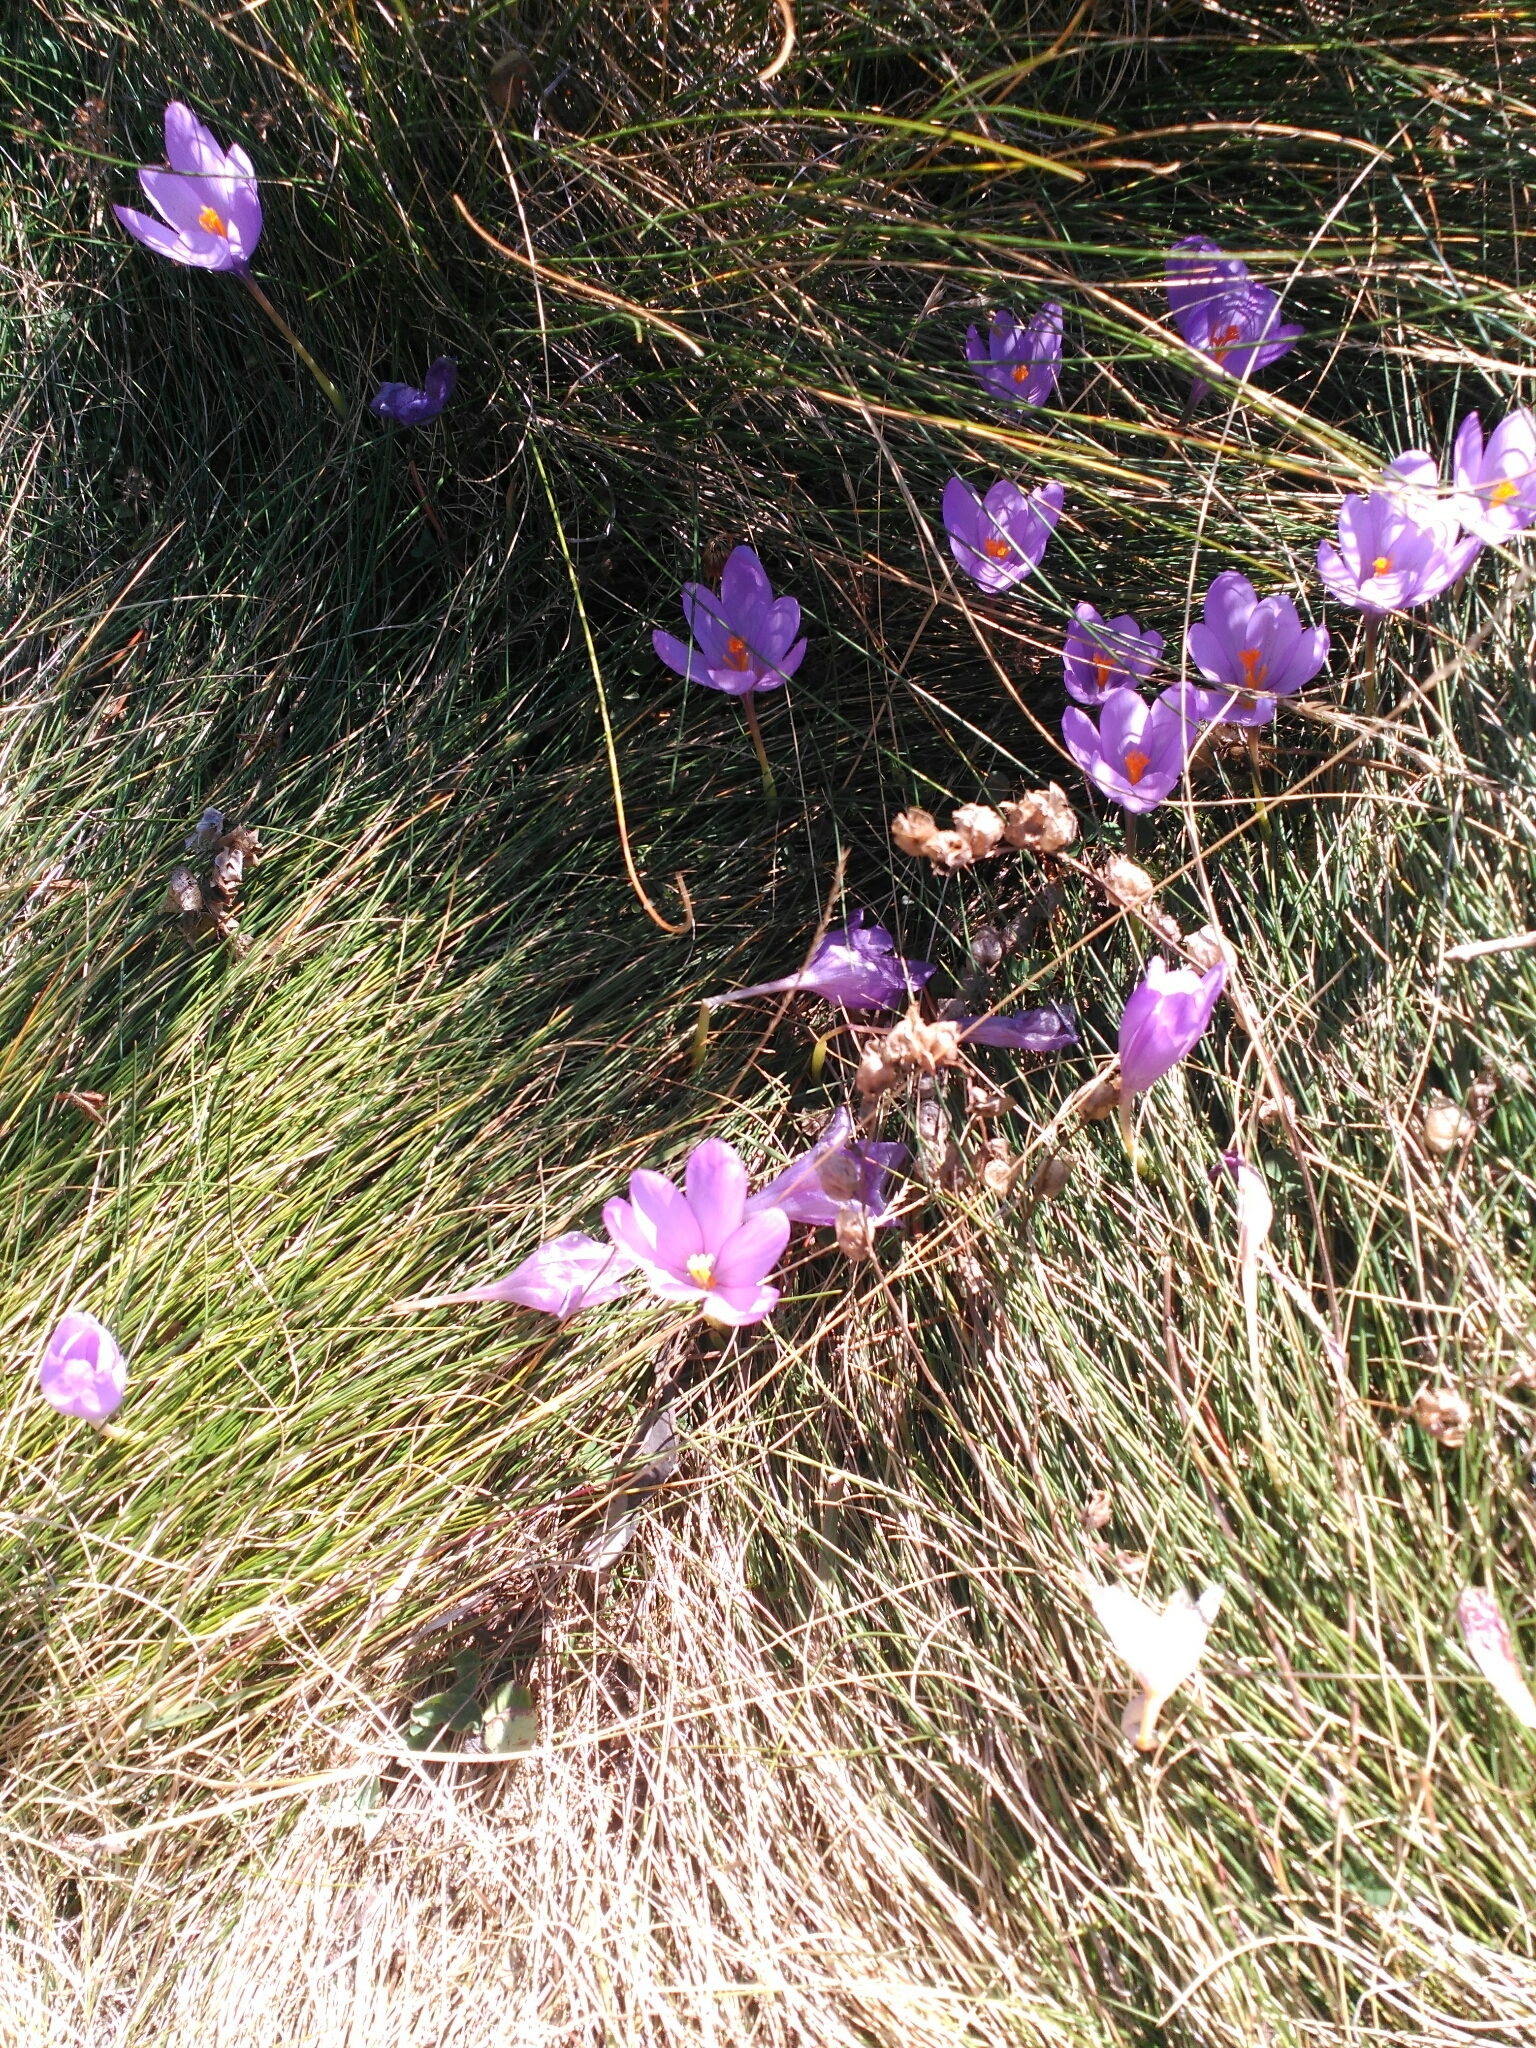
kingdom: Plantae
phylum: Tracheophyta
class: Liliopsida
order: Asparagales
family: Iridaceae
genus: Crocus
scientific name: Crocus nudiflorus
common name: Autumn crocus
